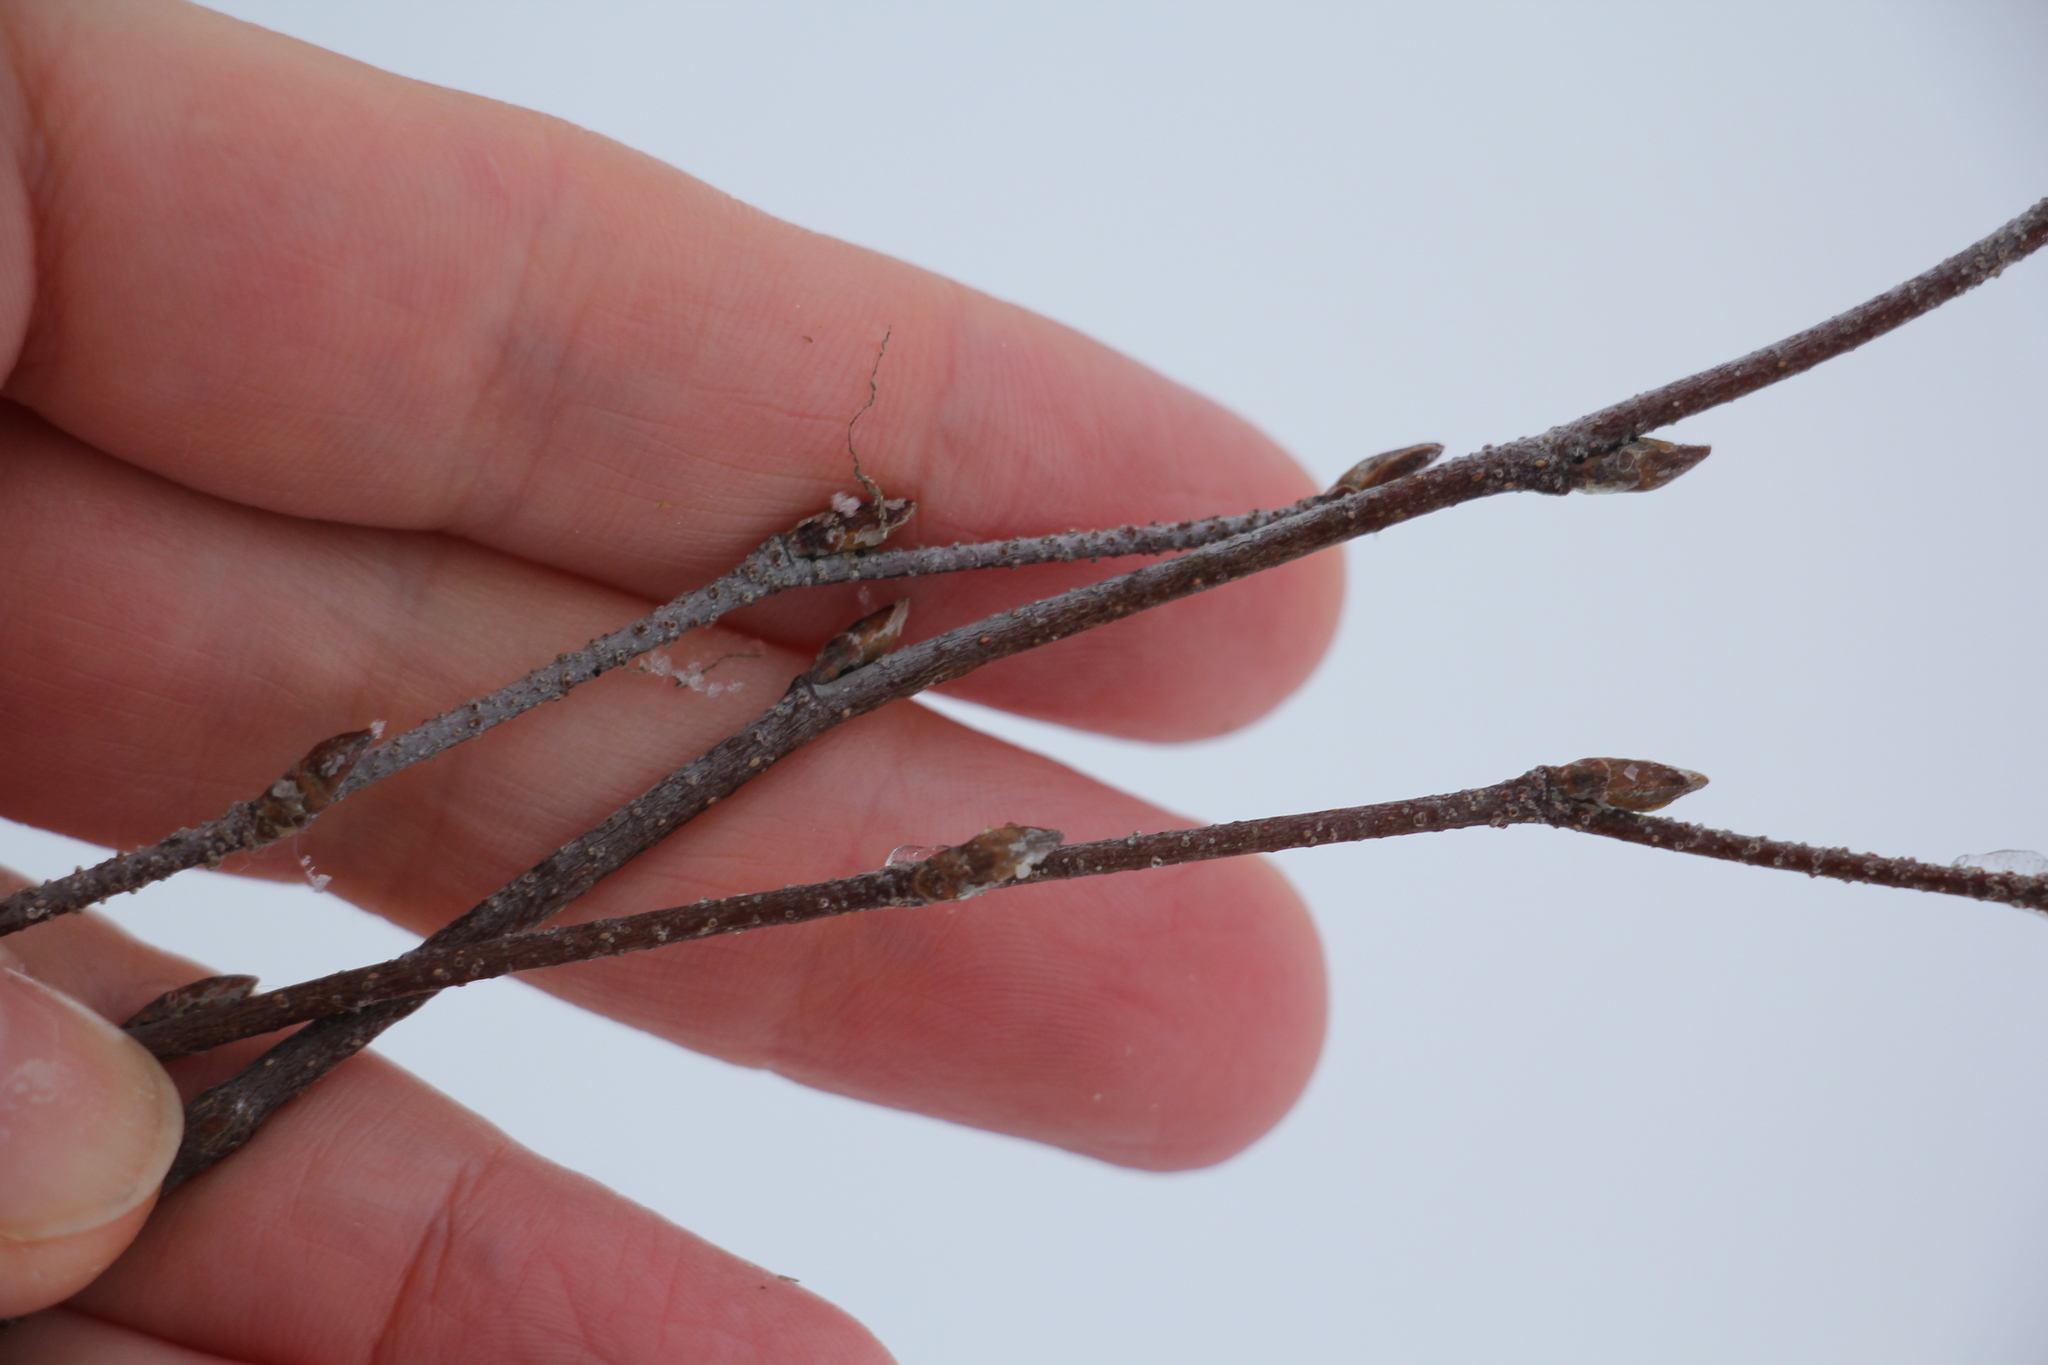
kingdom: Plantae
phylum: Tracheophyta
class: Magnoliopsida
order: Fagales
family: Betulaceae
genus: Betula
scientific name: Betula pendula
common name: Silver birch
